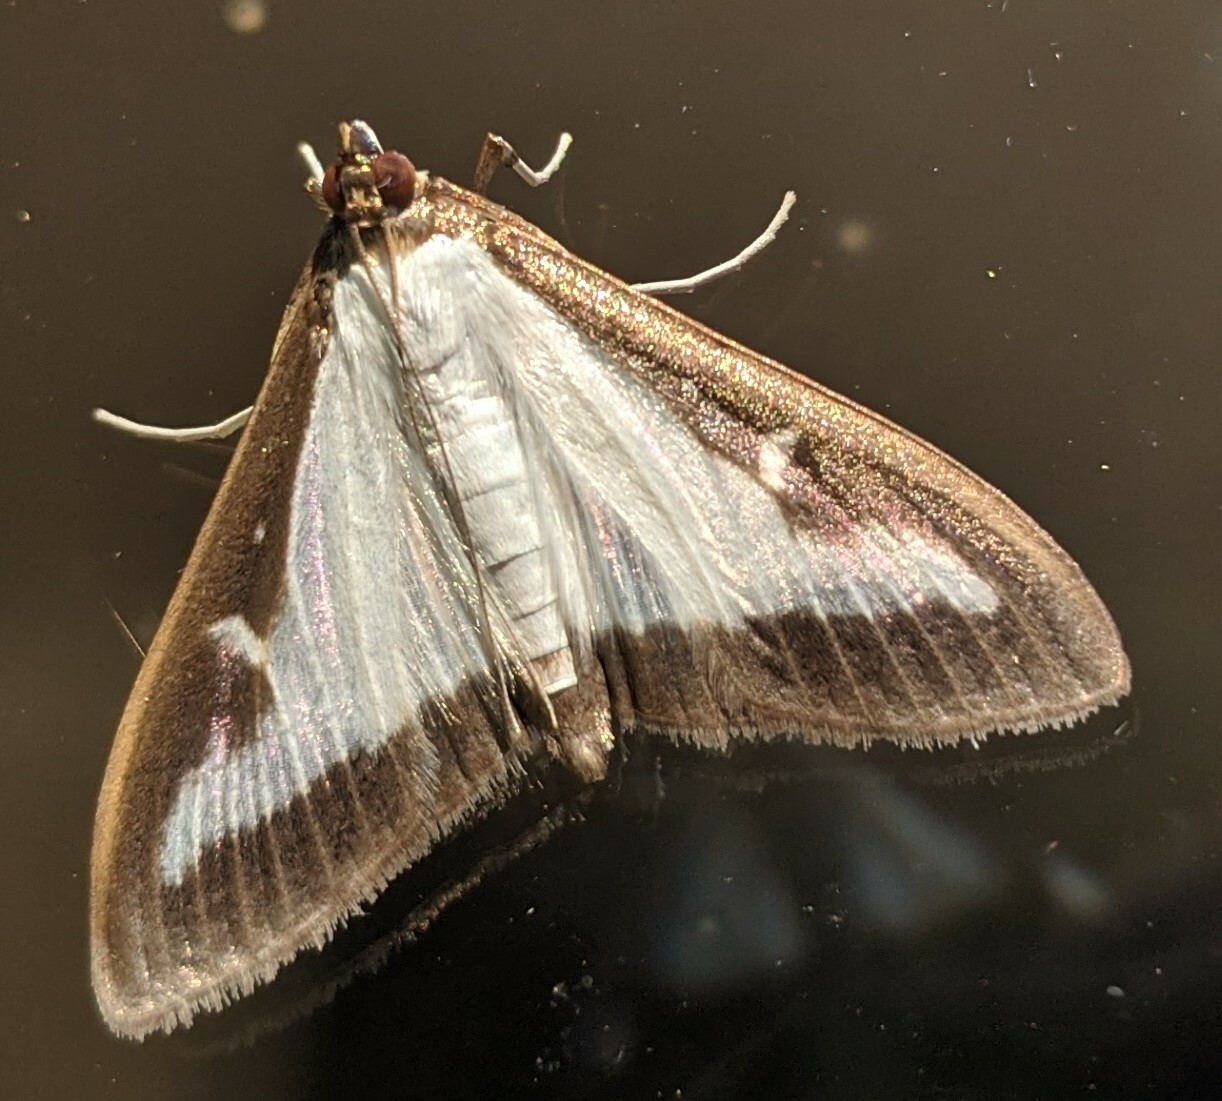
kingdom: Animalia
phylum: Arthropoda
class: Insecta
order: Lepidoptera
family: Crambidae
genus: Cydalima
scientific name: Cydalima perspectalis
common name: Box tree moth
